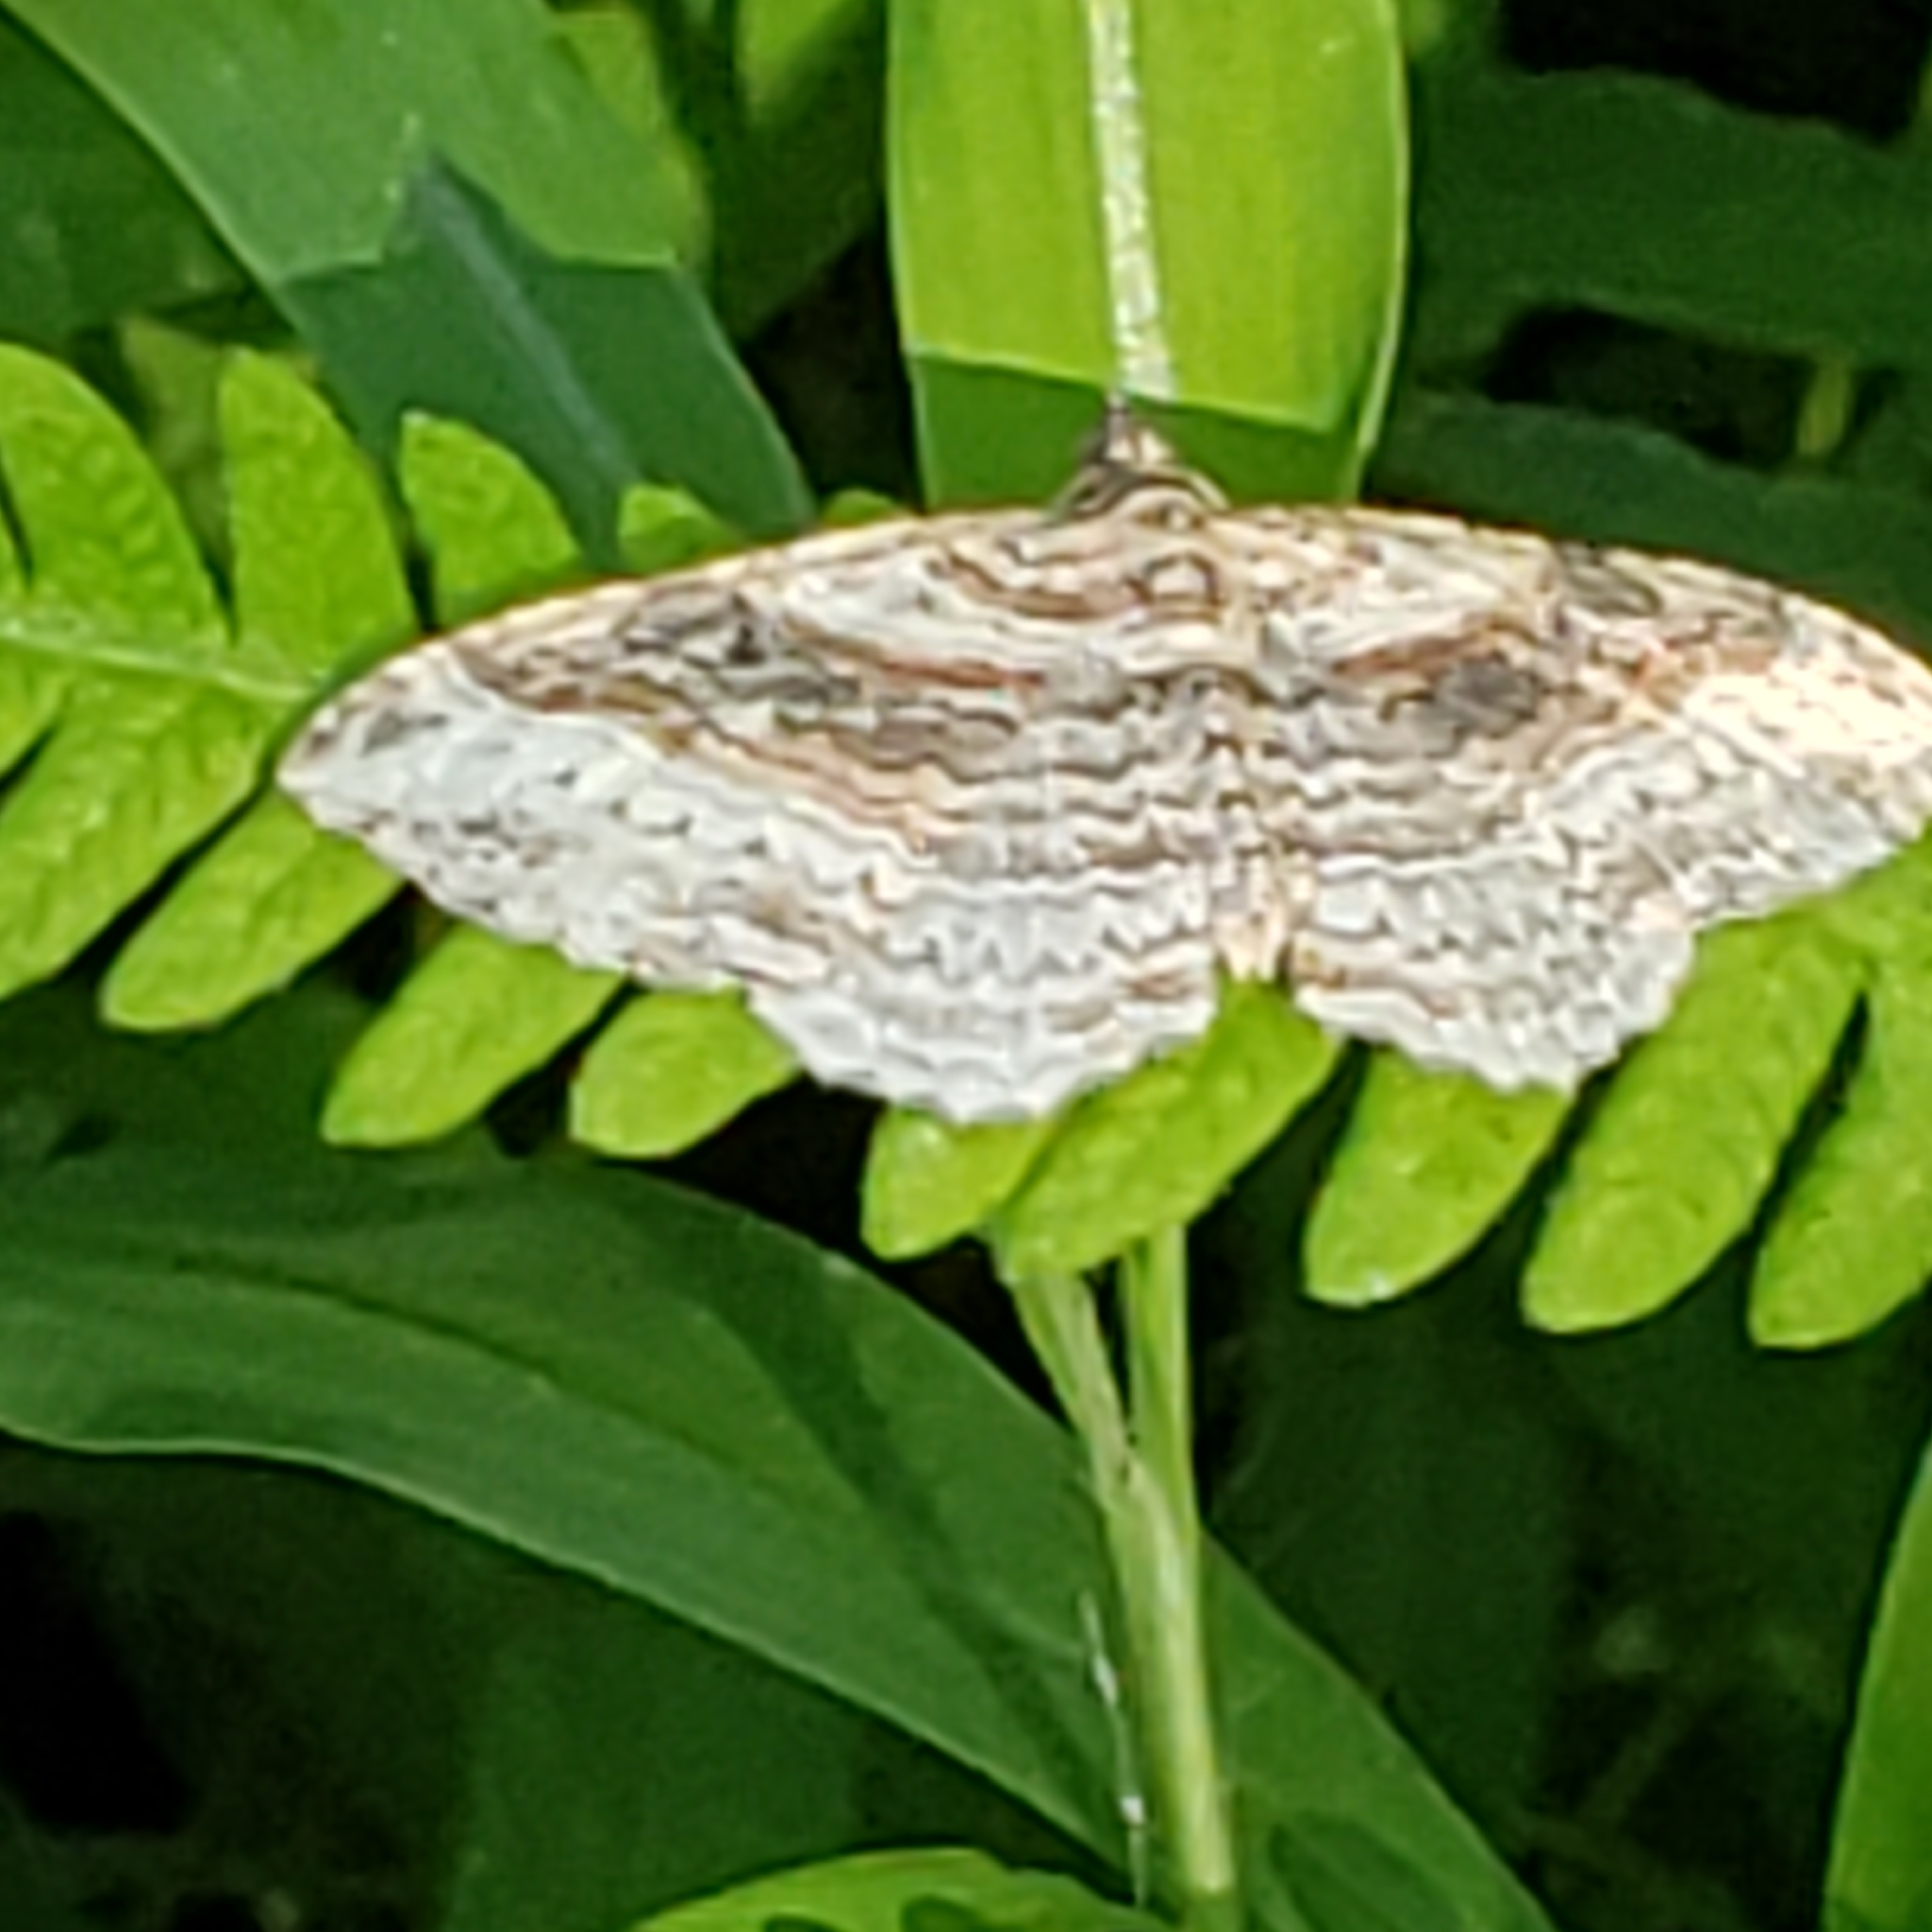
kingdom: Animalia
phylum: Arthropoda
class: Insecta
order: Lepidoptera
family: Geometridae
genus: Costaconvexa
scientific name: Costaconvexa centrostrigaria
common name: Bent-line carpet
